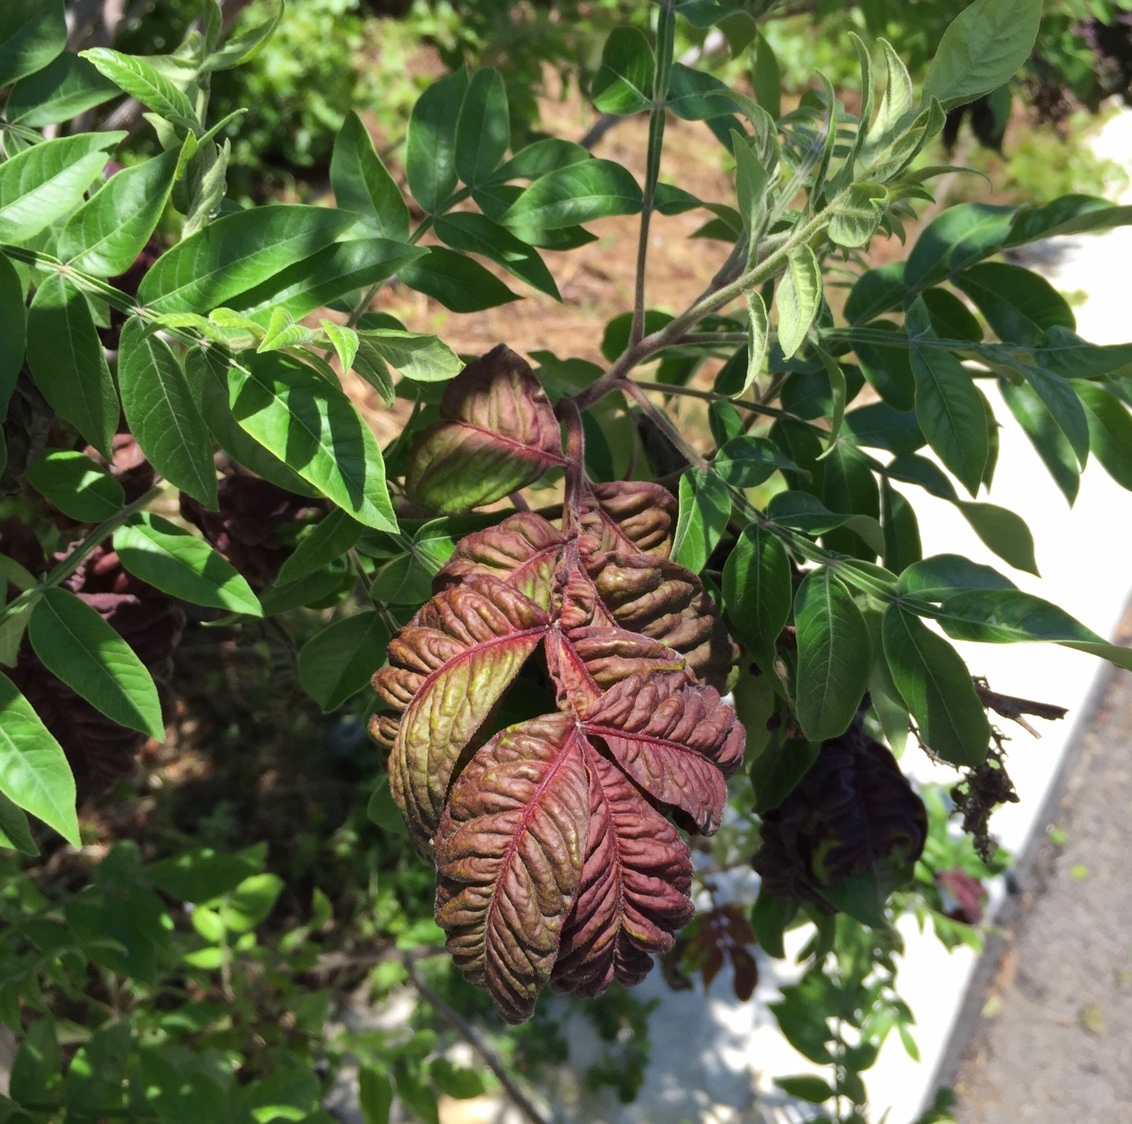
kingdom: Plantae
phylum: Tracheophyta
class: Magnoliopsida
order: Sapindales
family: Anacardiaceae
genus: Rhus
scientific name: Rhus copallina
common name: Shining sumac
